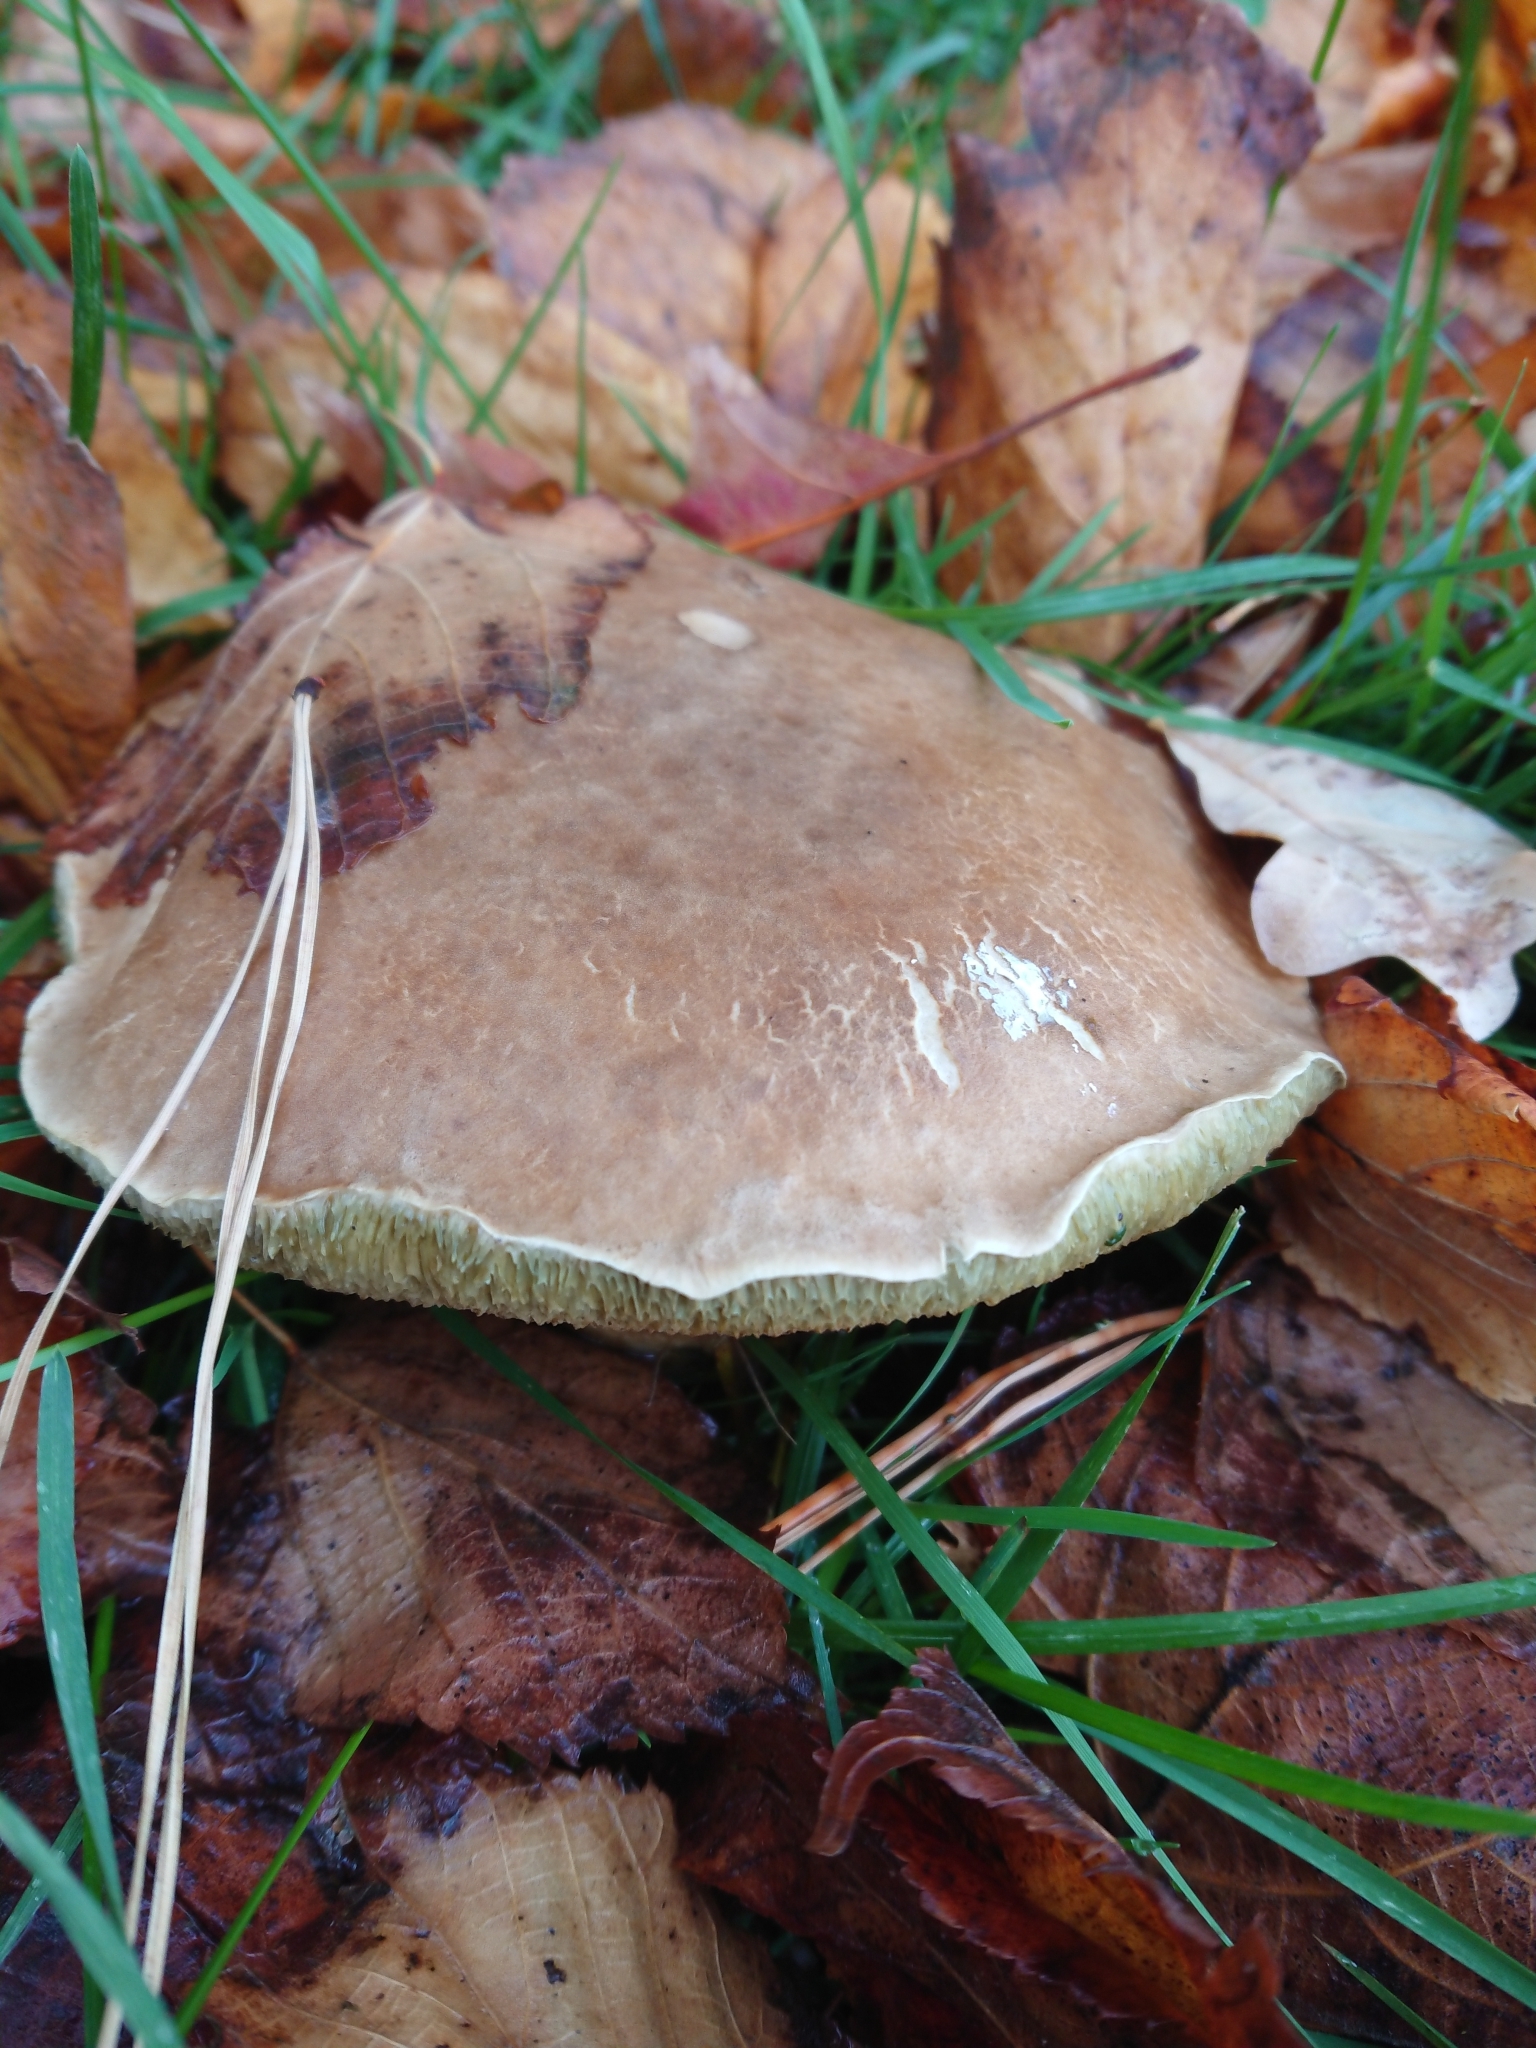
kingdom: Fungi
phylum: Basidiomycota
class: Agaricomycetes
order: Boletales
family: Boletaceae
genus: Xerocomellus
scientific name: Xerocomellus cisalpinus
